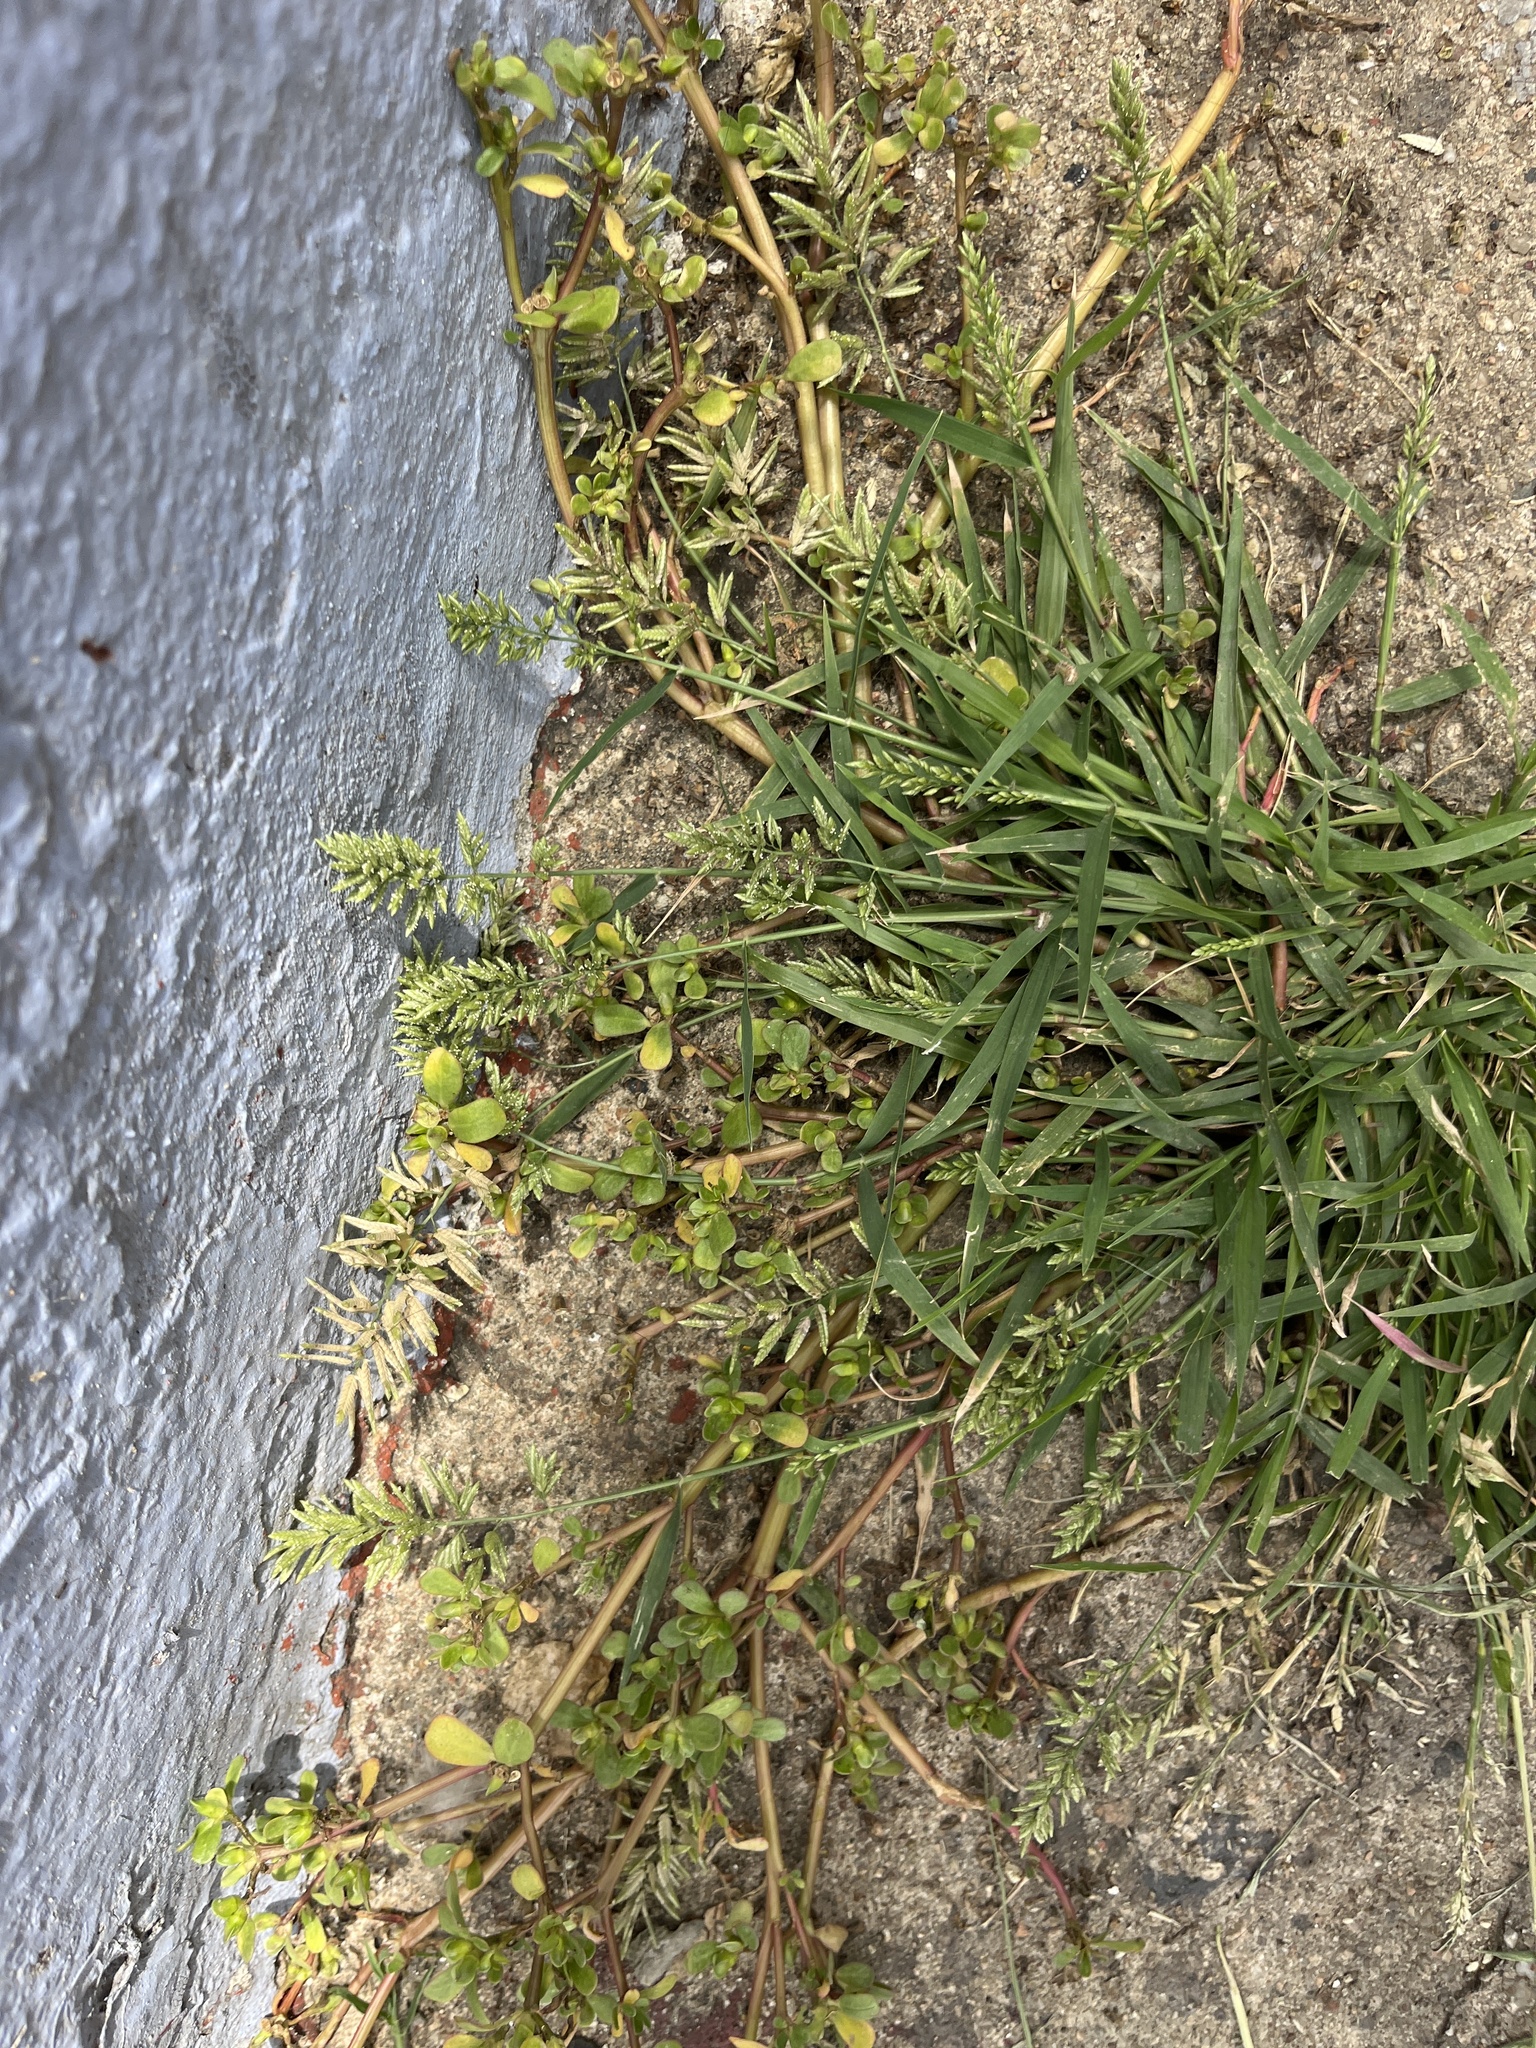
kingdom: Plantae
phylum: Tracheophyta
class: Magnoliopsida
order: Caryophyllales
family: Portulacaceae
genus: Portulaca
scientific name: Portulaca oleracea
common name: Common purslane
